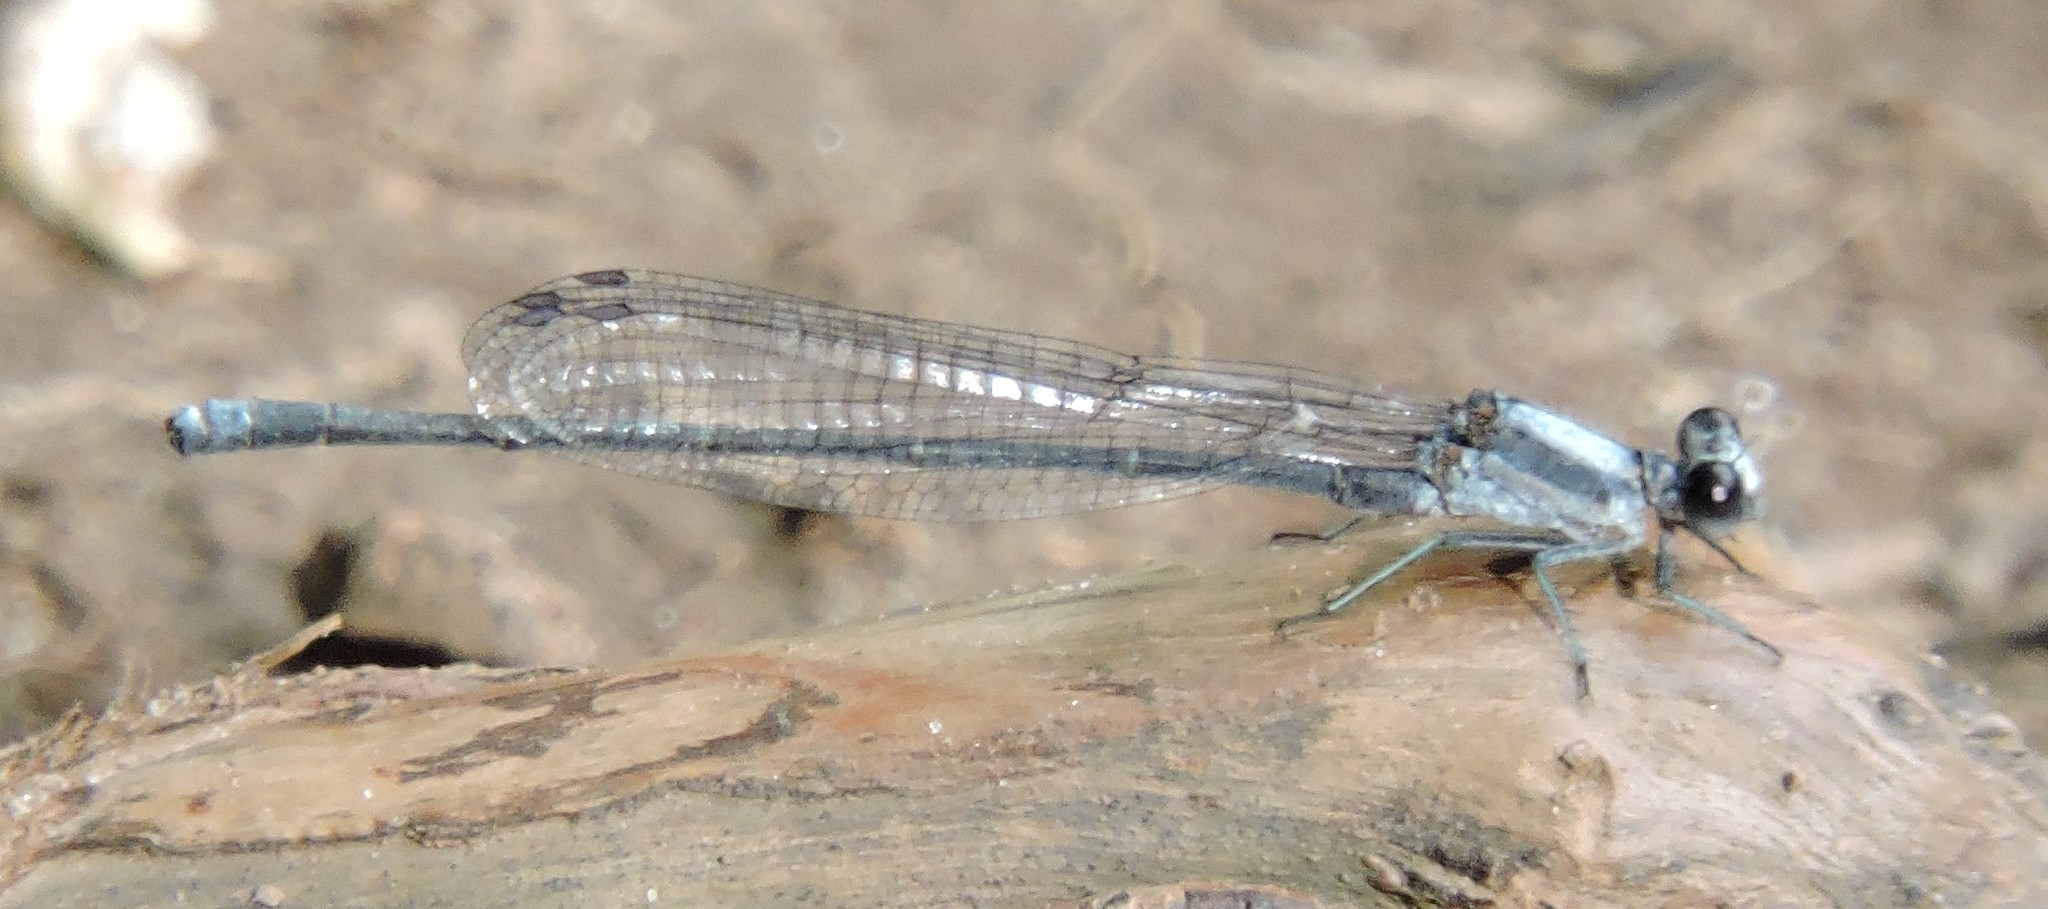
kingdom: Animalia
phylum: Arthropoda
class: Insecta
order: Odonata
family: Coenagrionidae
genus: Argia
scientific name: Argia moesta
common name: Powdered dancer
